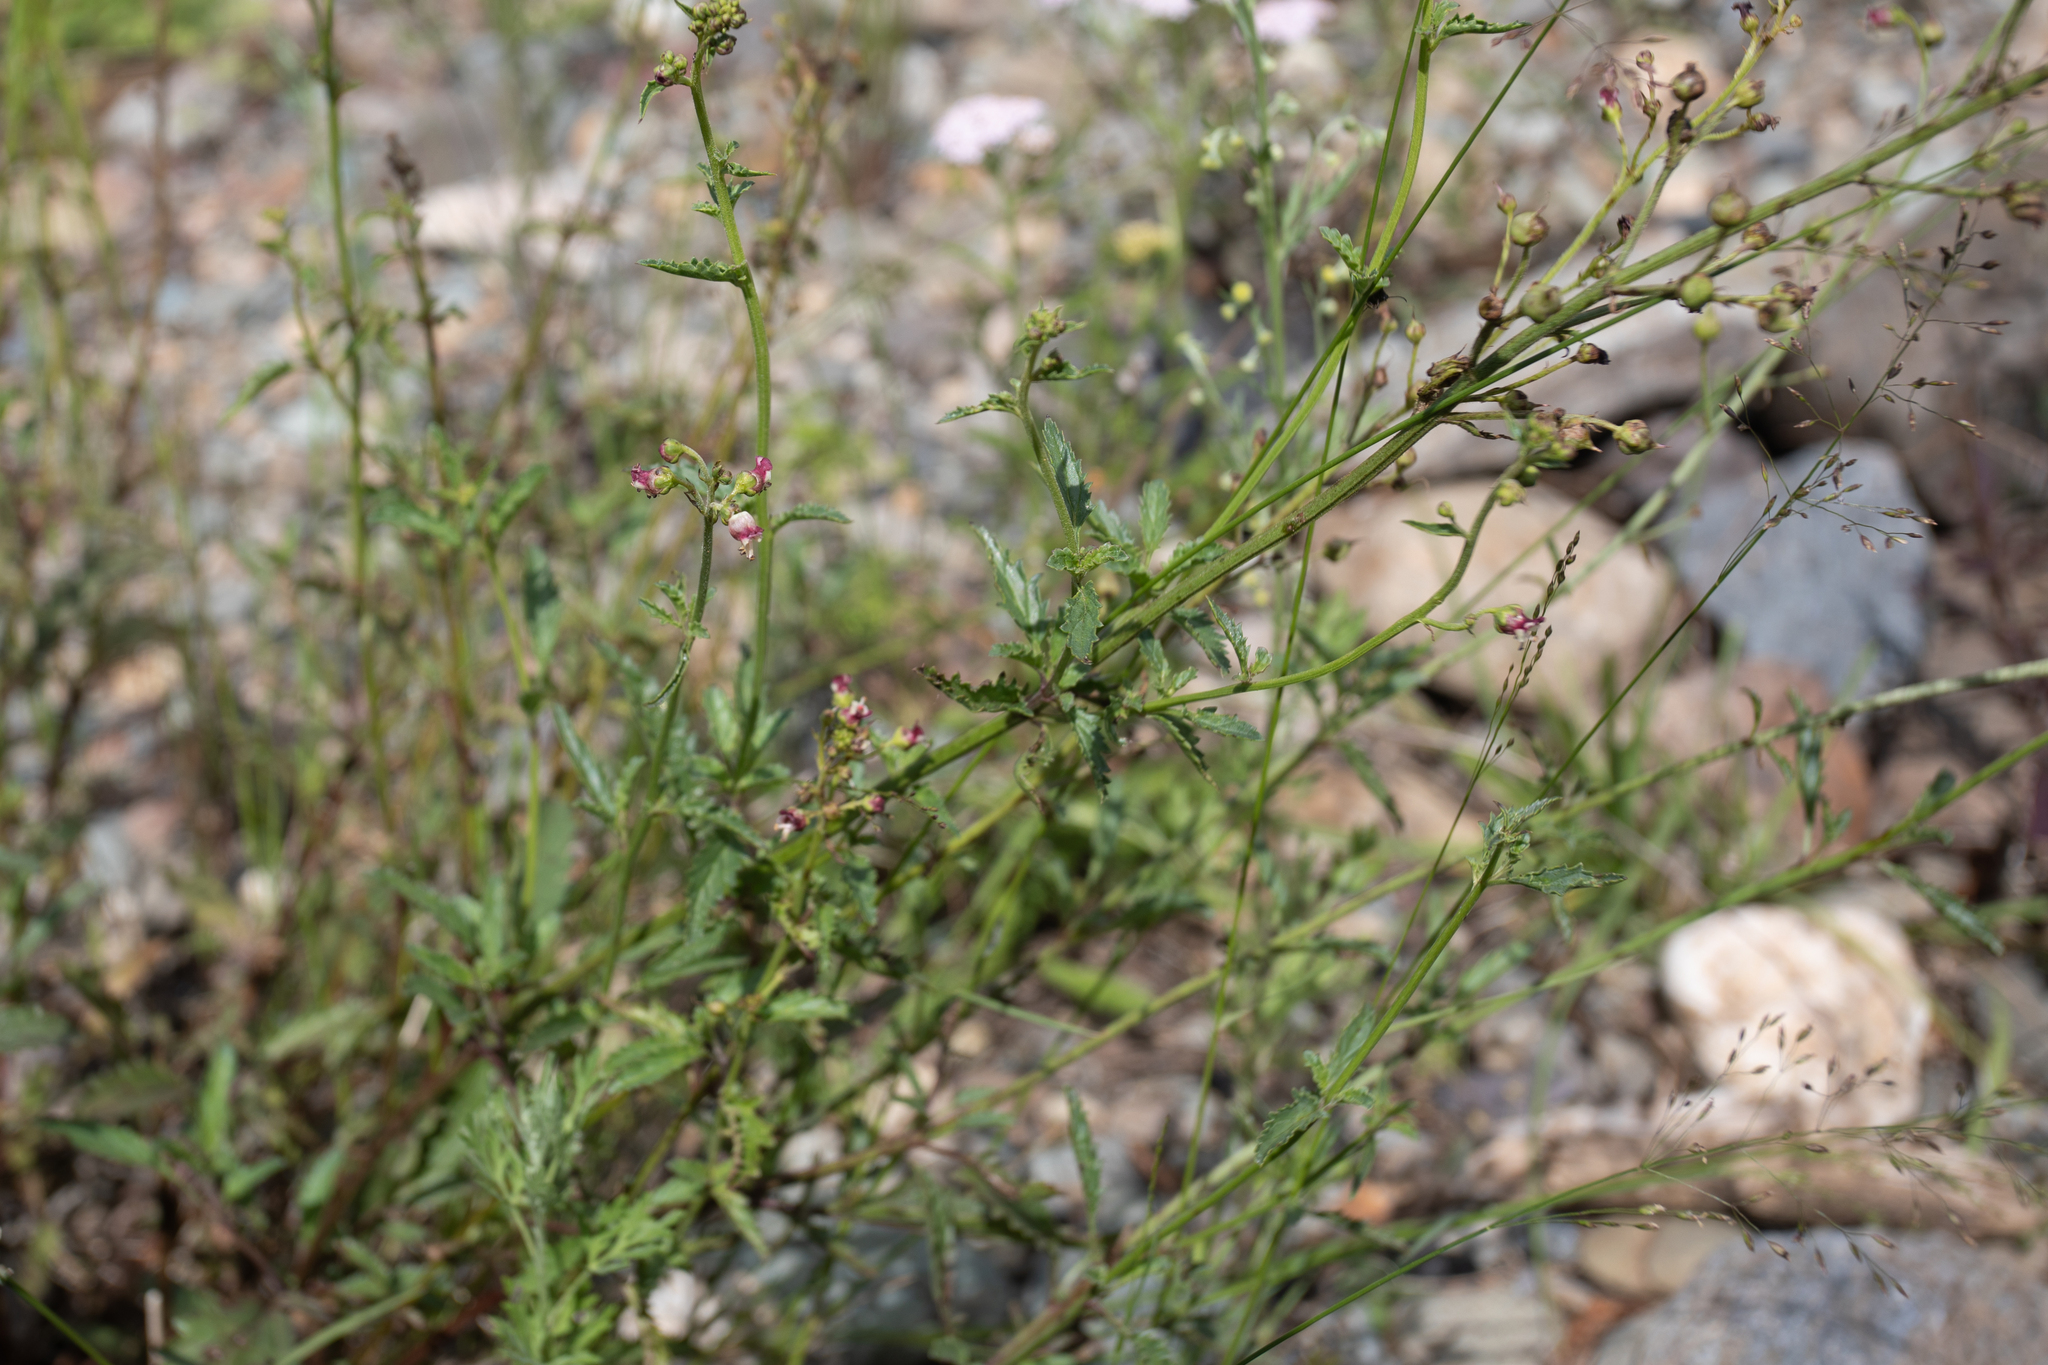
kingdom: Plantae
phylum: Tracheophyta
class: Magnoliopsida
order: Lamiales
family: Scrophulariaceae
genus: Scrophularia
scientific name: Scrophularia incisa
